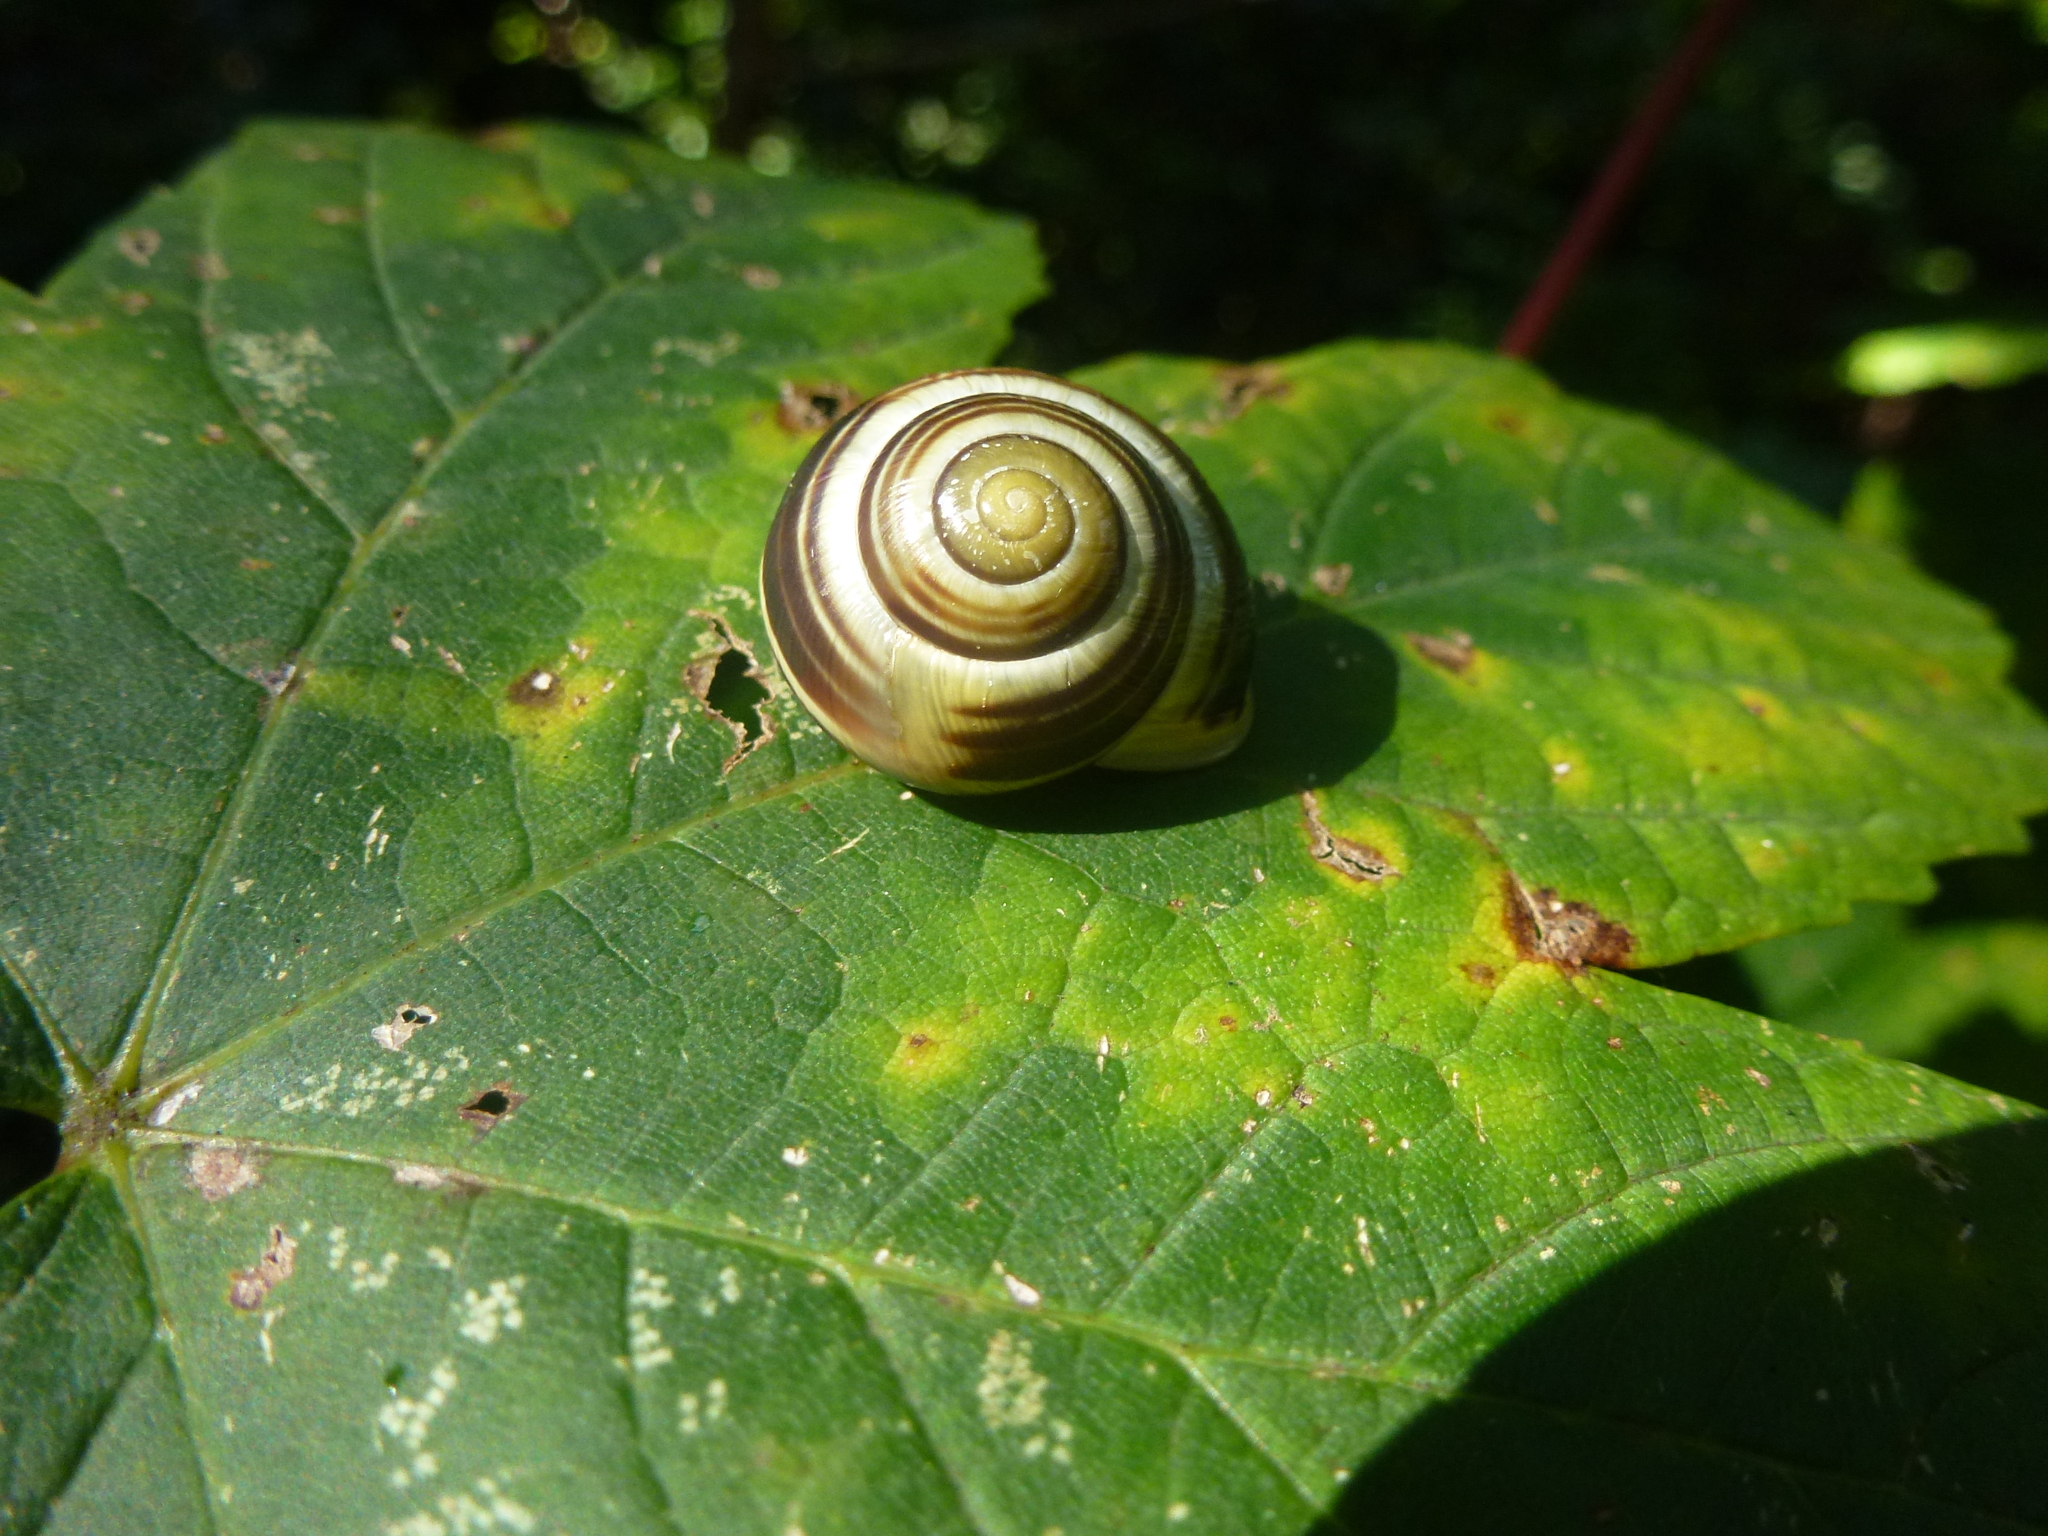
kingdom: Animalia
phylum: Mollusca
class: Gastropoda
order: Stylommatophora
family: Helicidae
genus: Cepaea
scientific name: Cepaea hortensis
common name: White-lip gardensnail
